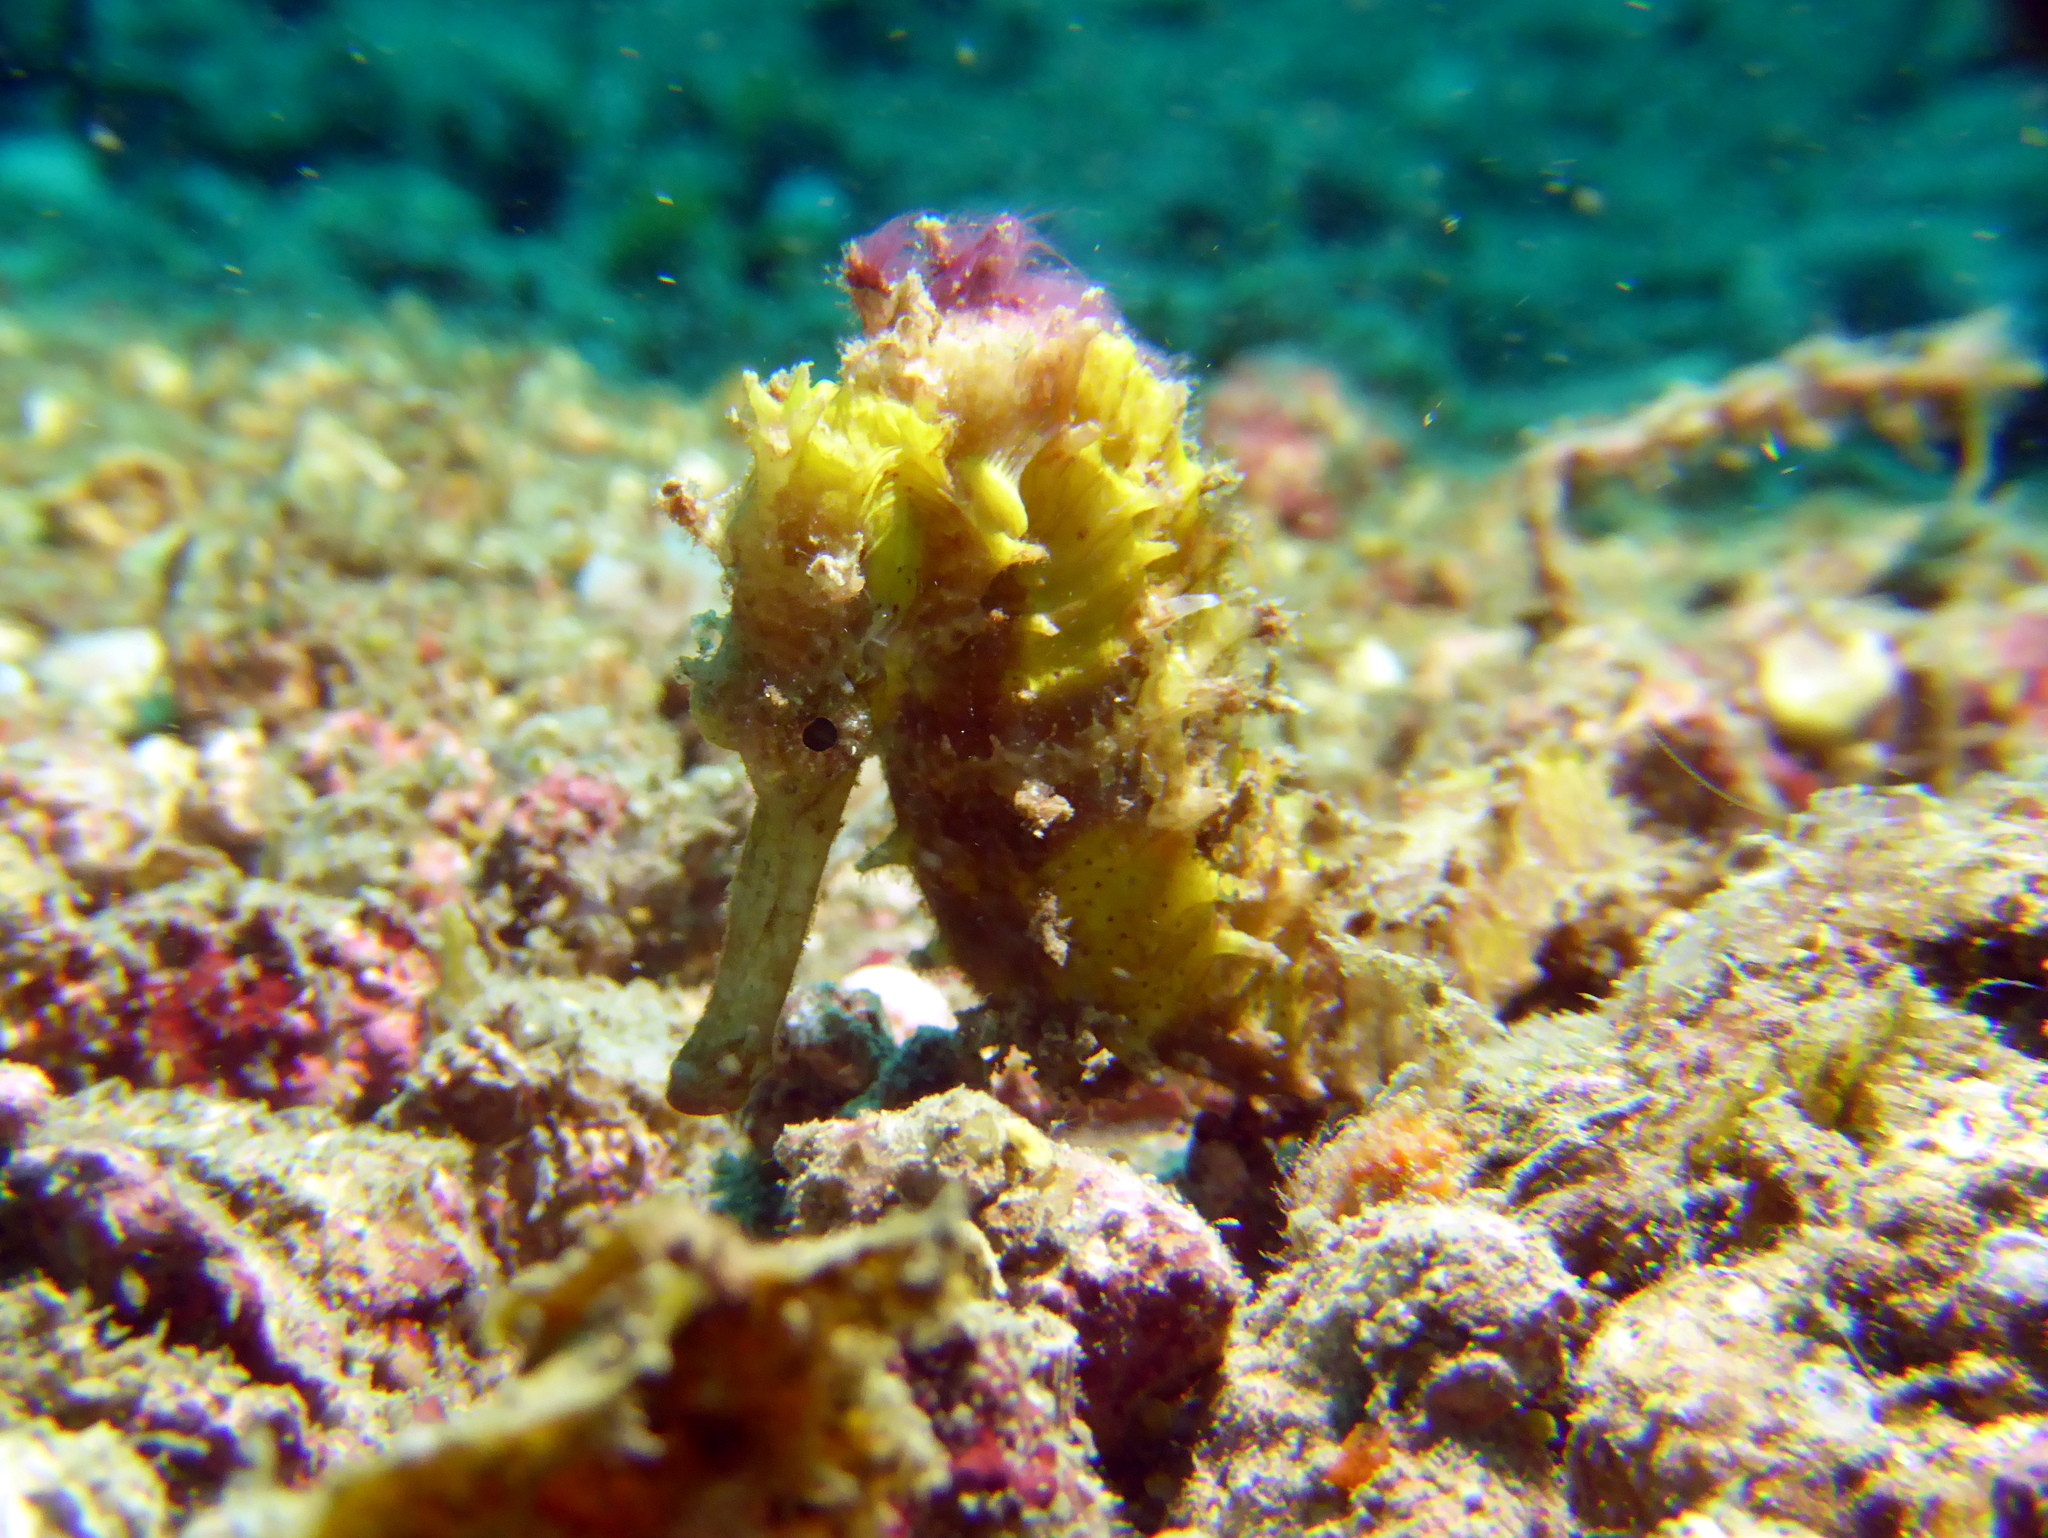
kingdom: Animalia
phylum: Chordata
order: Syngnathiformes
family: Syngnathidae
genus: Hippocampus
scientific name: Hippocampus spinosissimus
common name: Hedgehog seahorse
